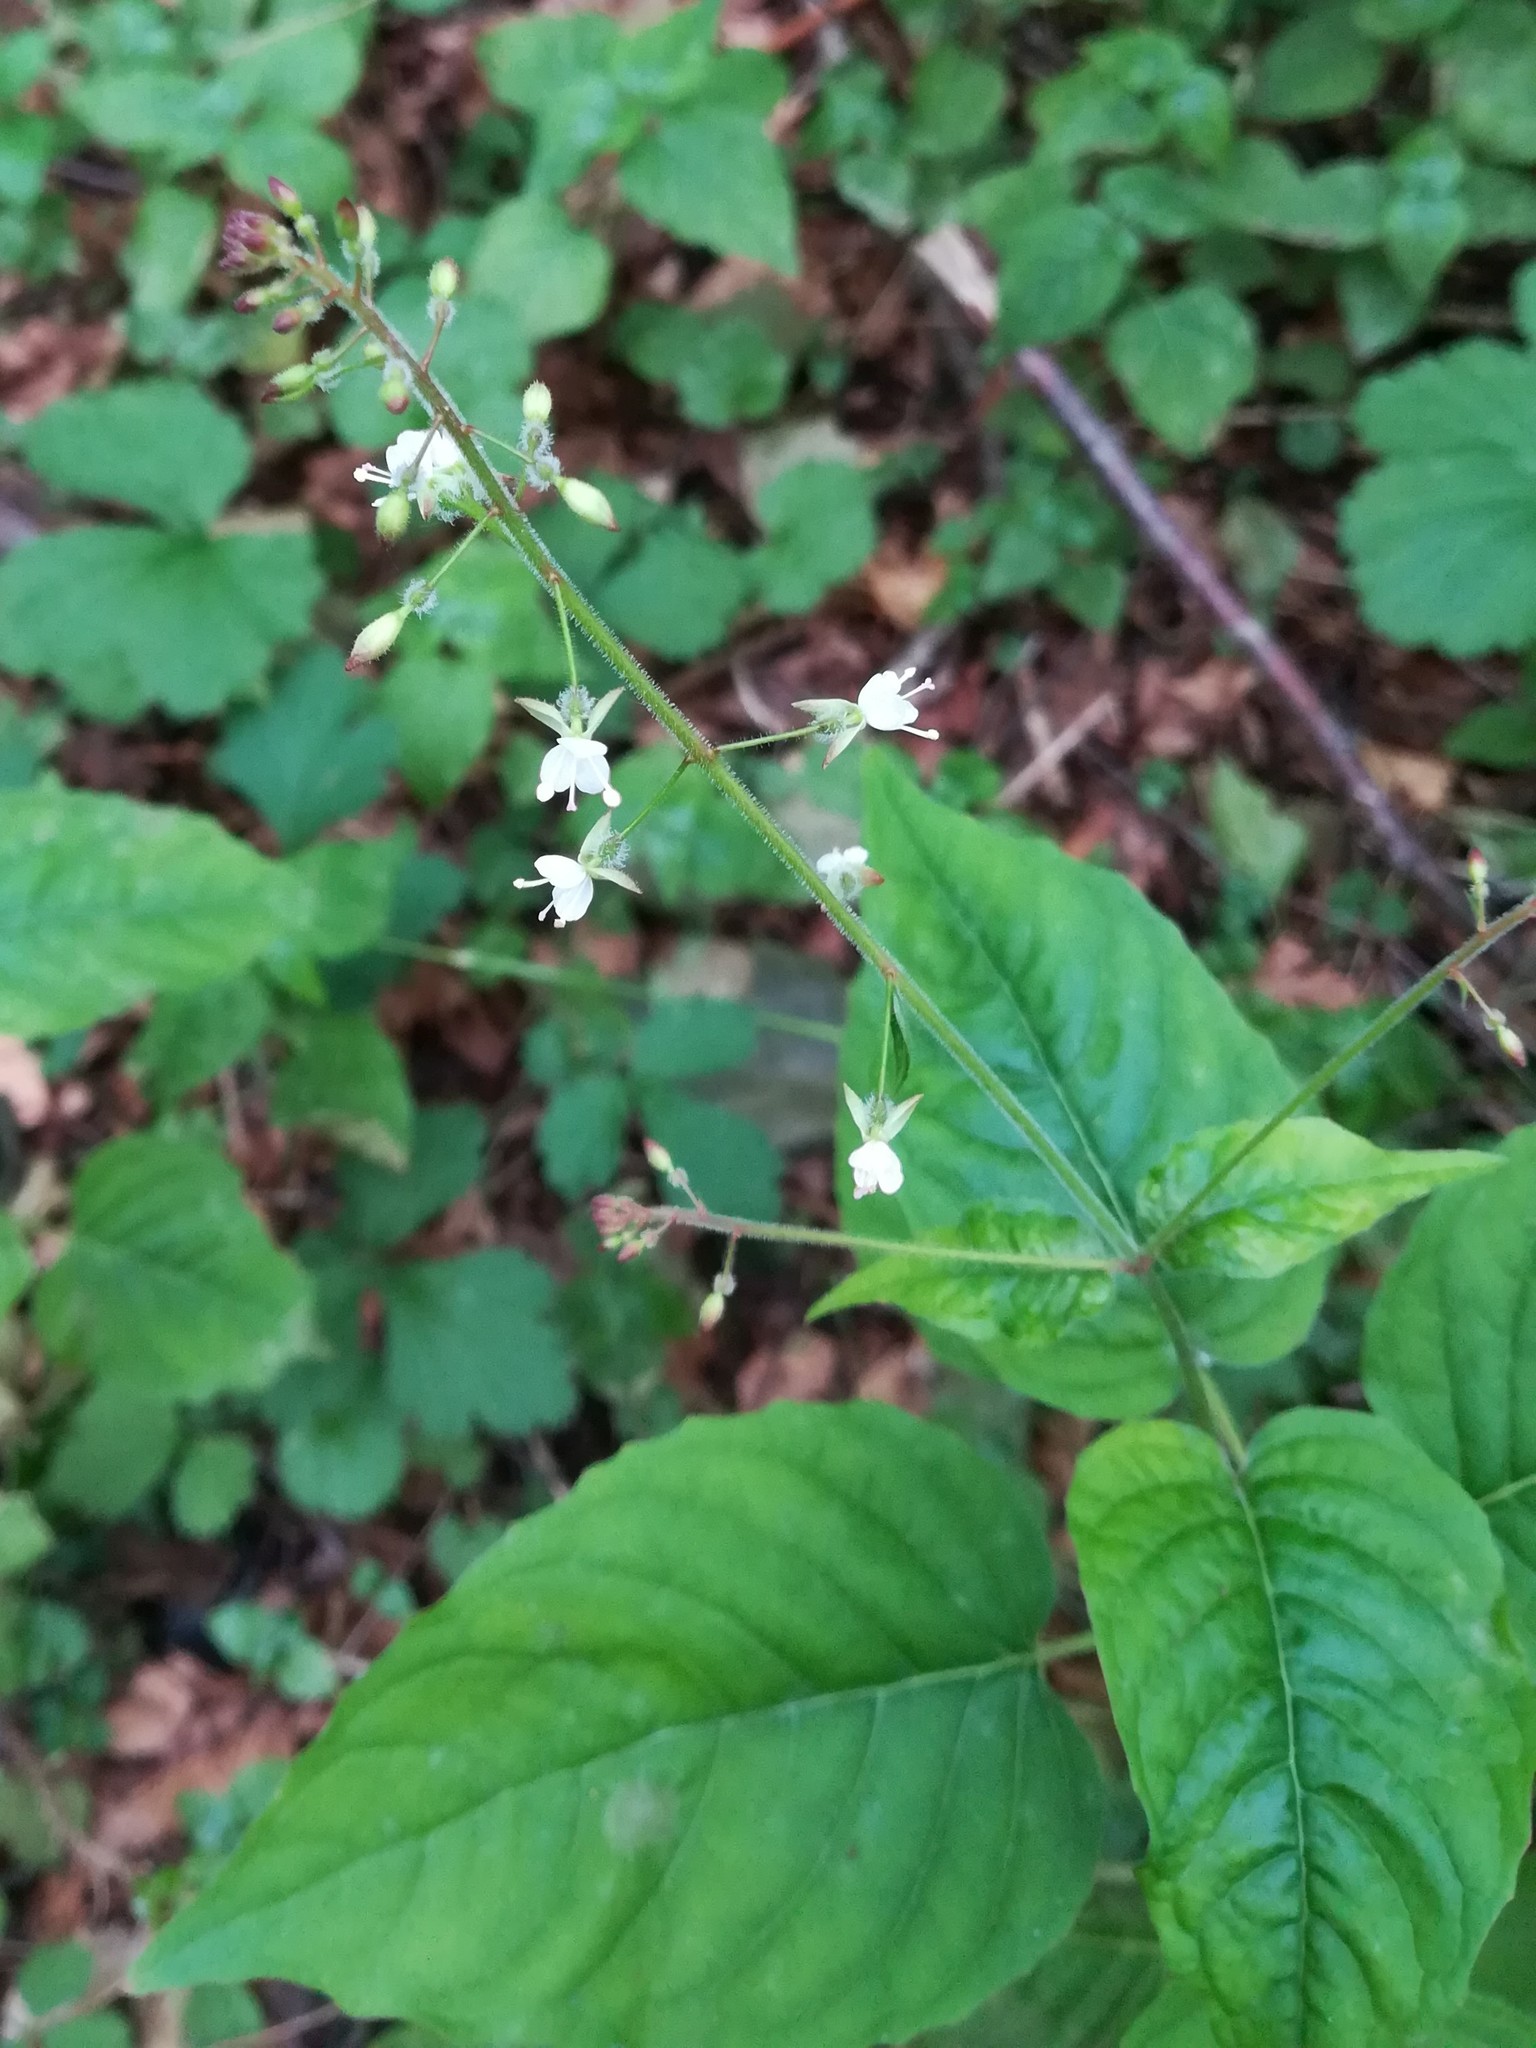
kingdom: Plantae
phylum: Tracheophyta
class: Magnoliopsida
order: Myrtales
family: Onagraceae
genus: Circaea
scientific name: Circaea lutetiana
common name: Enchanter's-nightshade
